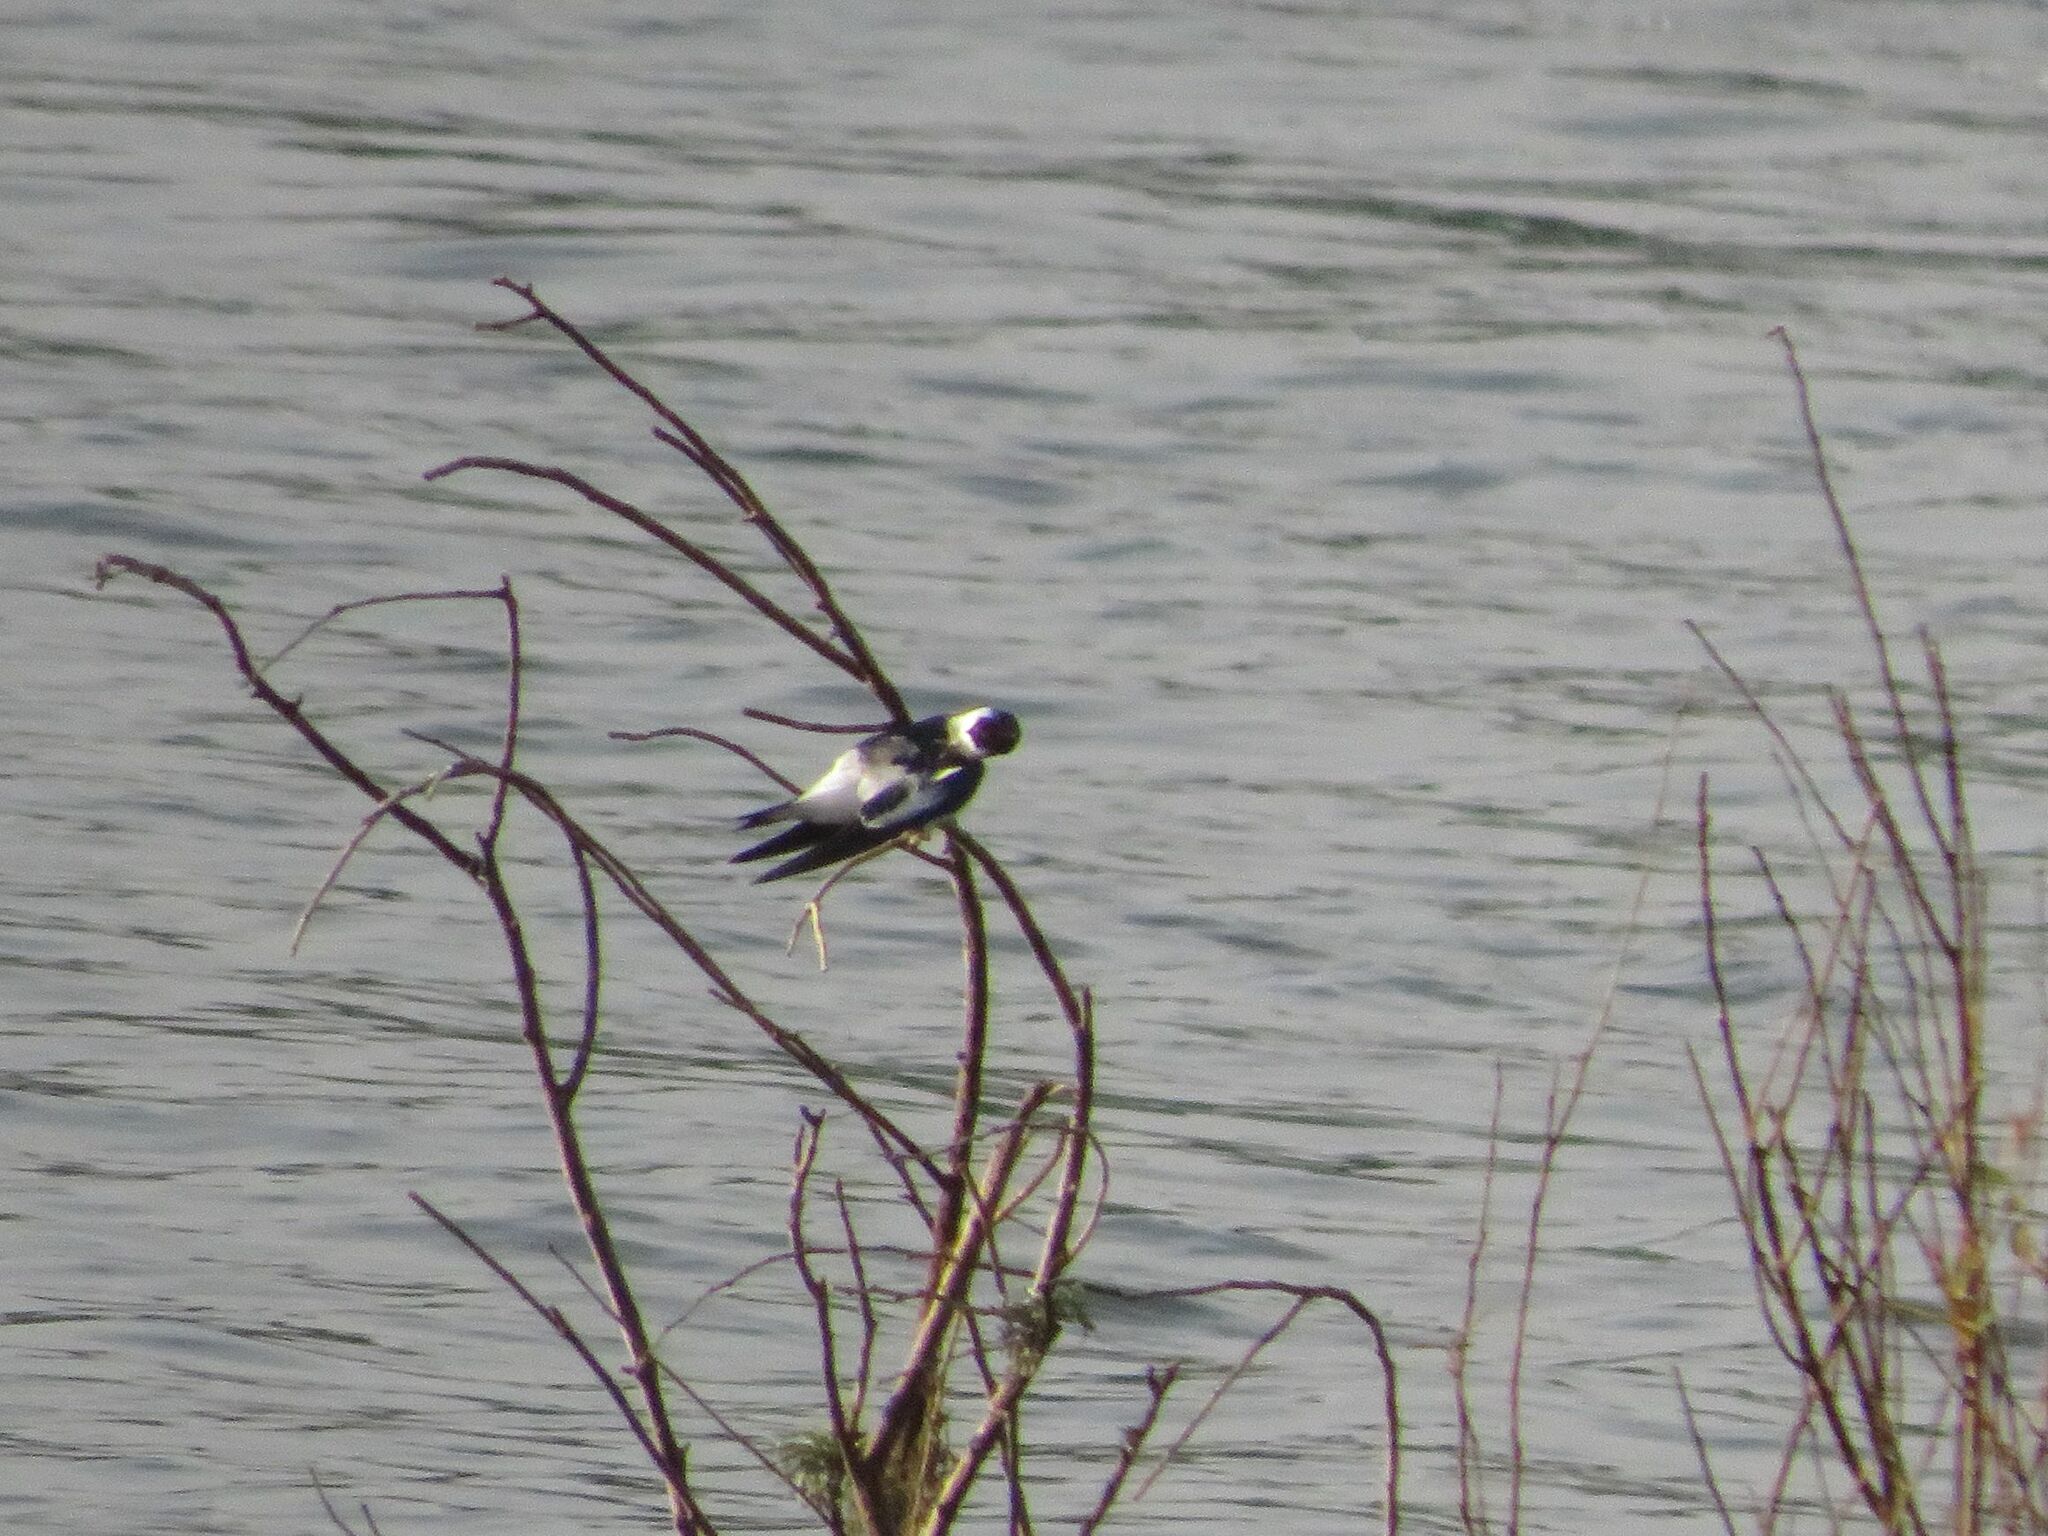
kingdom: Animalia
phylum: Chordata
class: Aves
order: Passeriformes
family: Hirundinidae
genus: Tachycineta
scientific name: Tachycineta albiventer
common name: White-winged swallow
